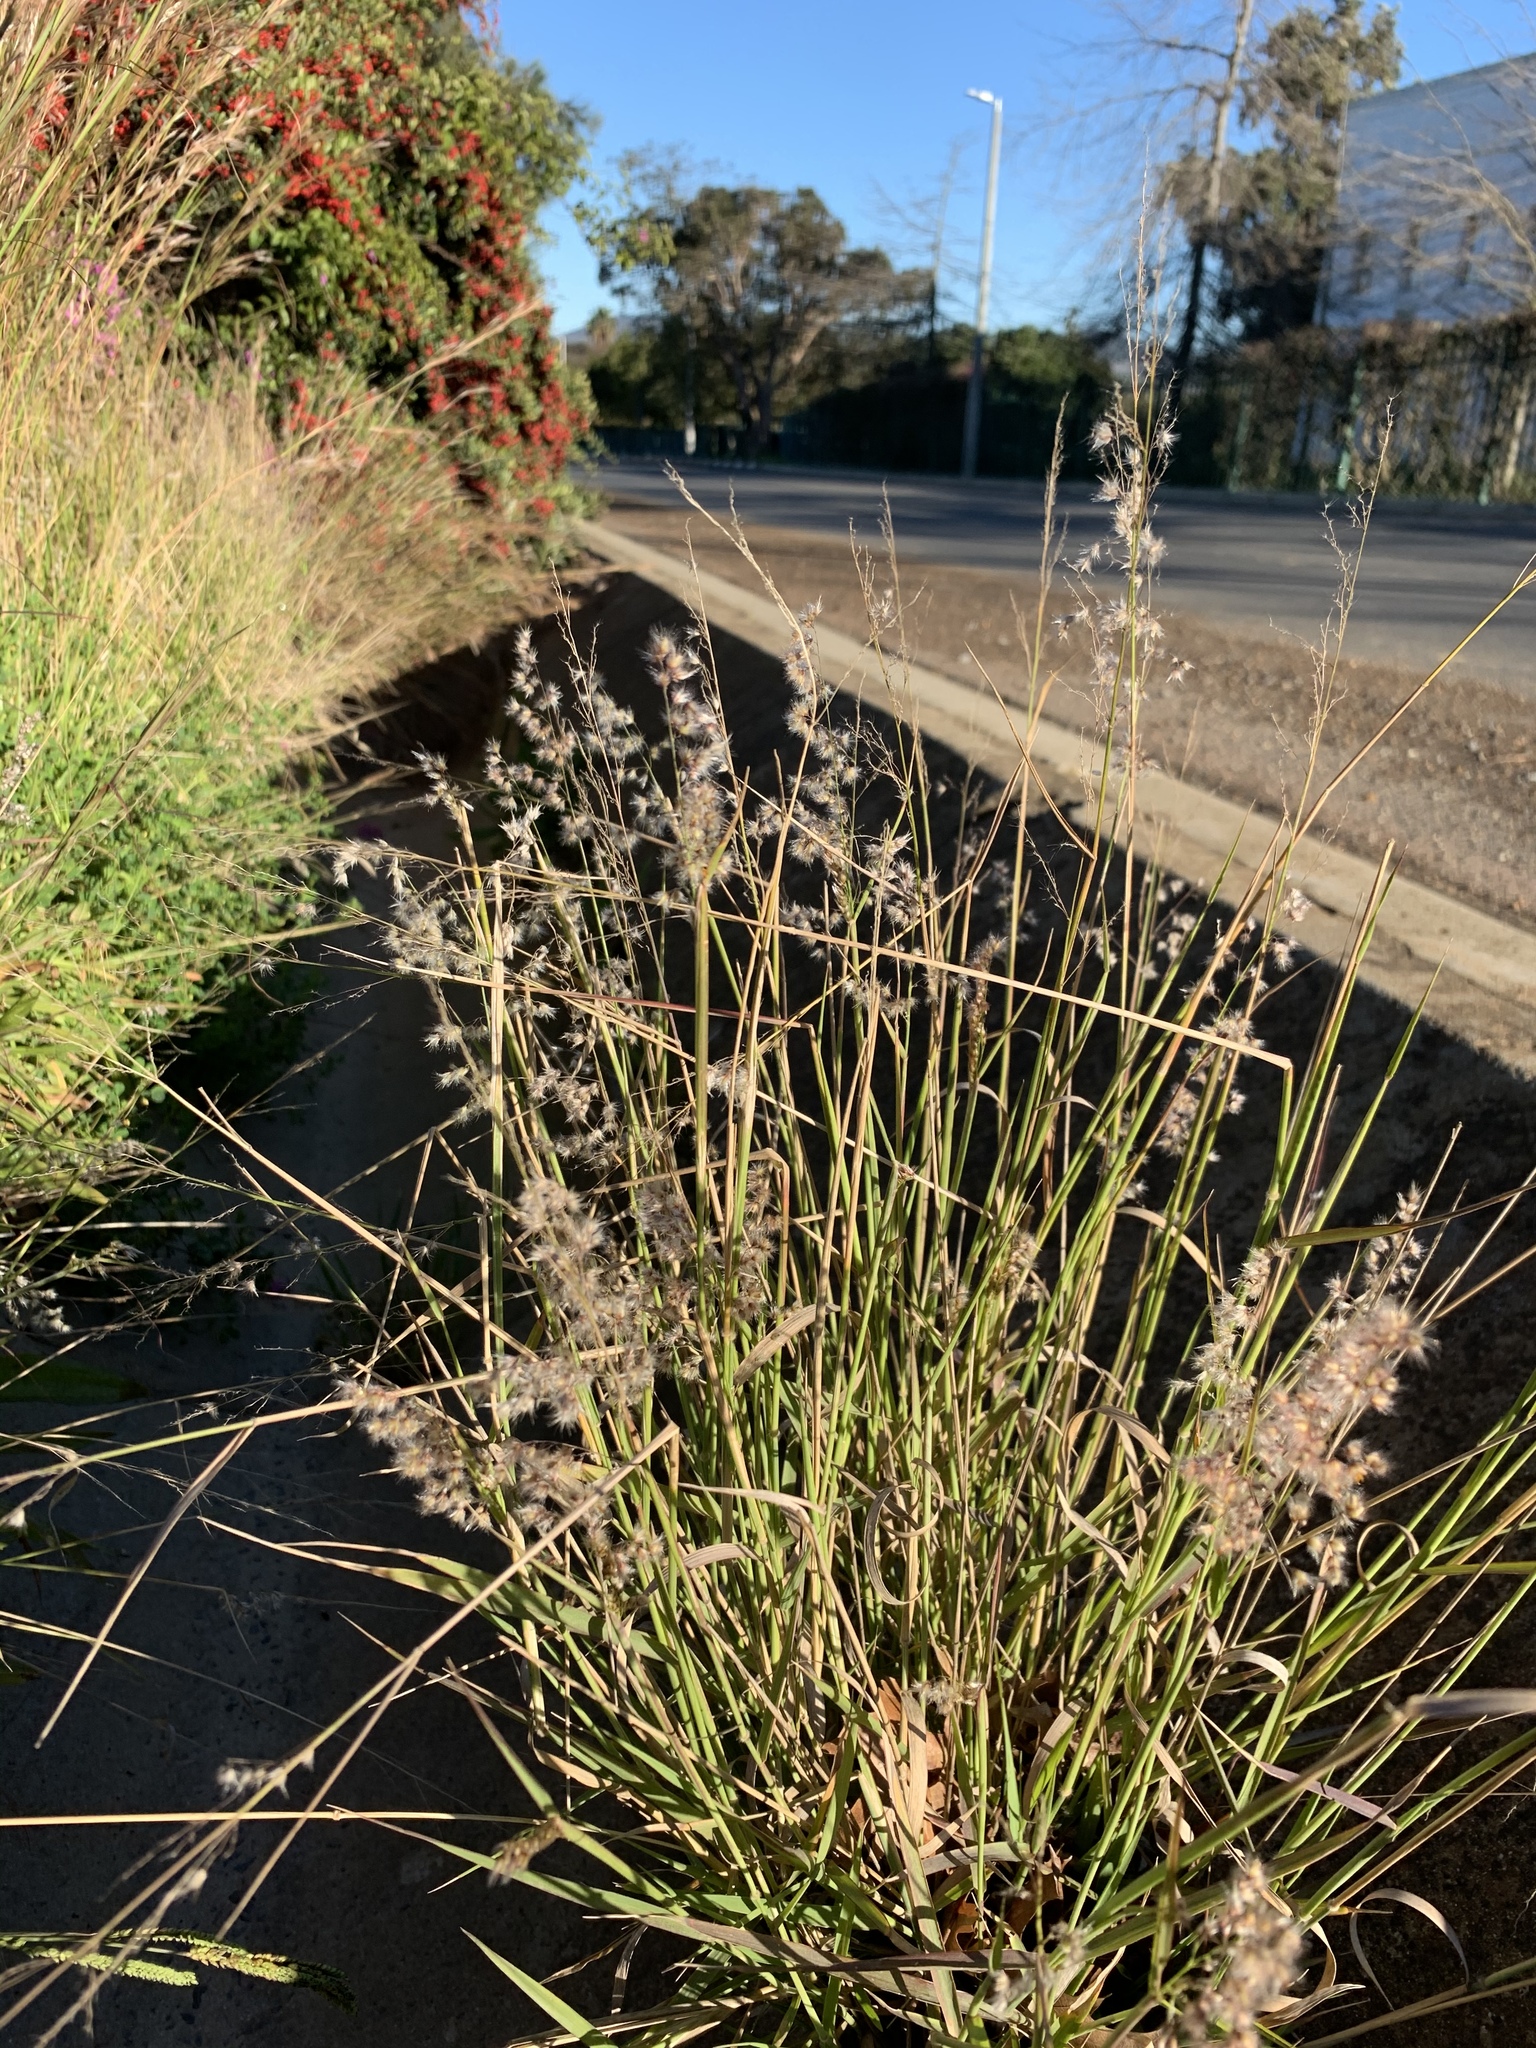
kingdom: Plantae
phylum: Tracheophyta
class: Liliopsida
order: Poales
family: Poaceae
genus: Melinis
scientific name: Melinis repens
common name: Rose natal grass
